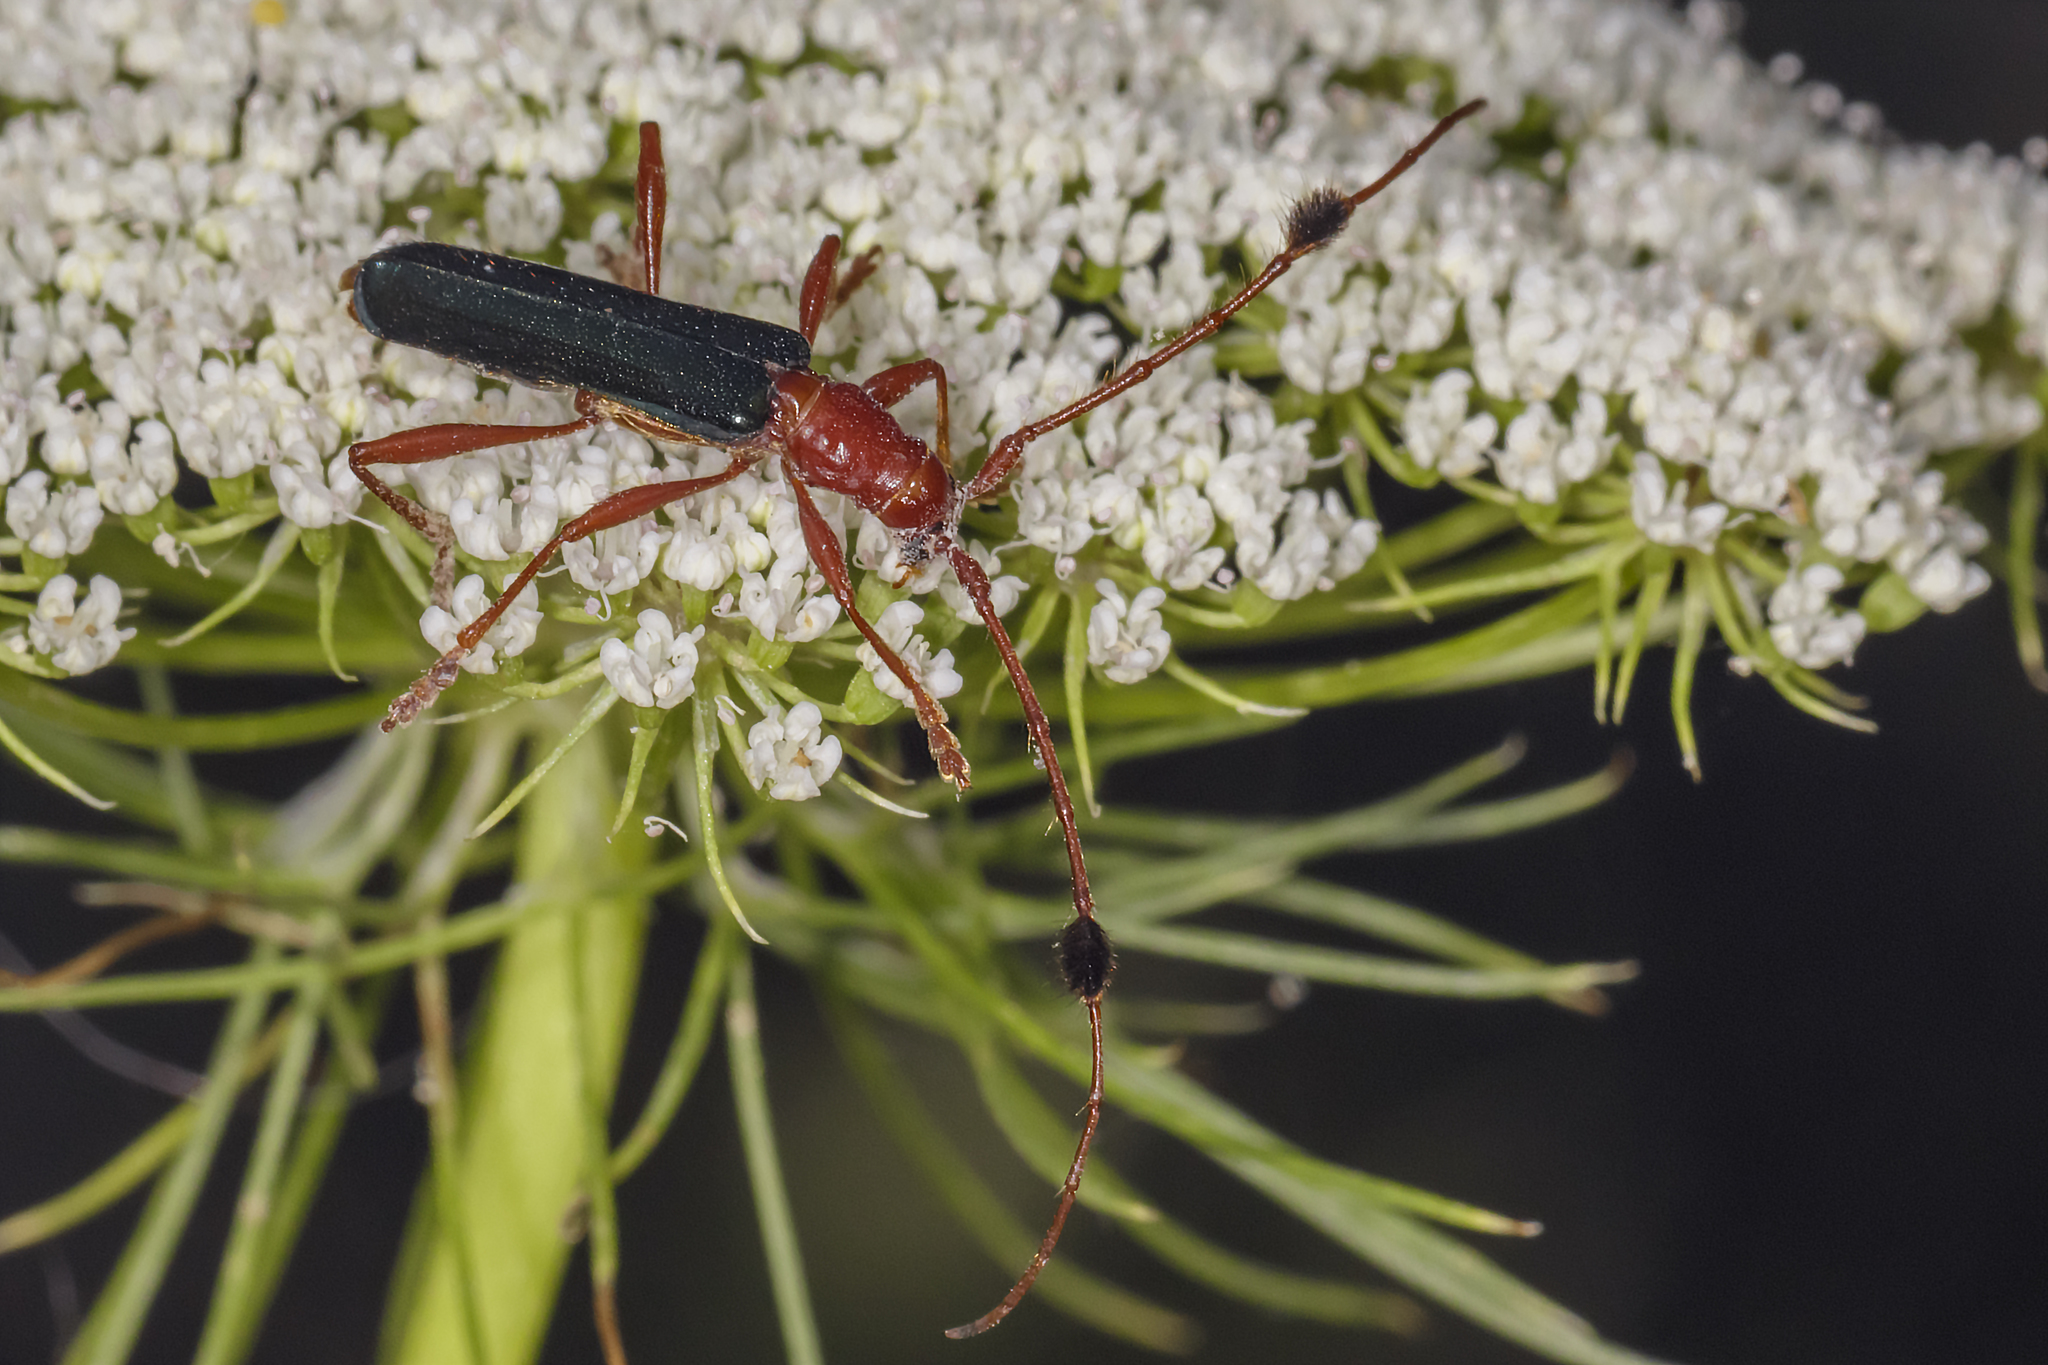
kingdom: Animalia
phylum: Arthropoda
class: Insecta
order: Coleoptera
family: Cerambycidae
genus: Paromoeocerus
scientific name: Paromoeocerus barbicornis
